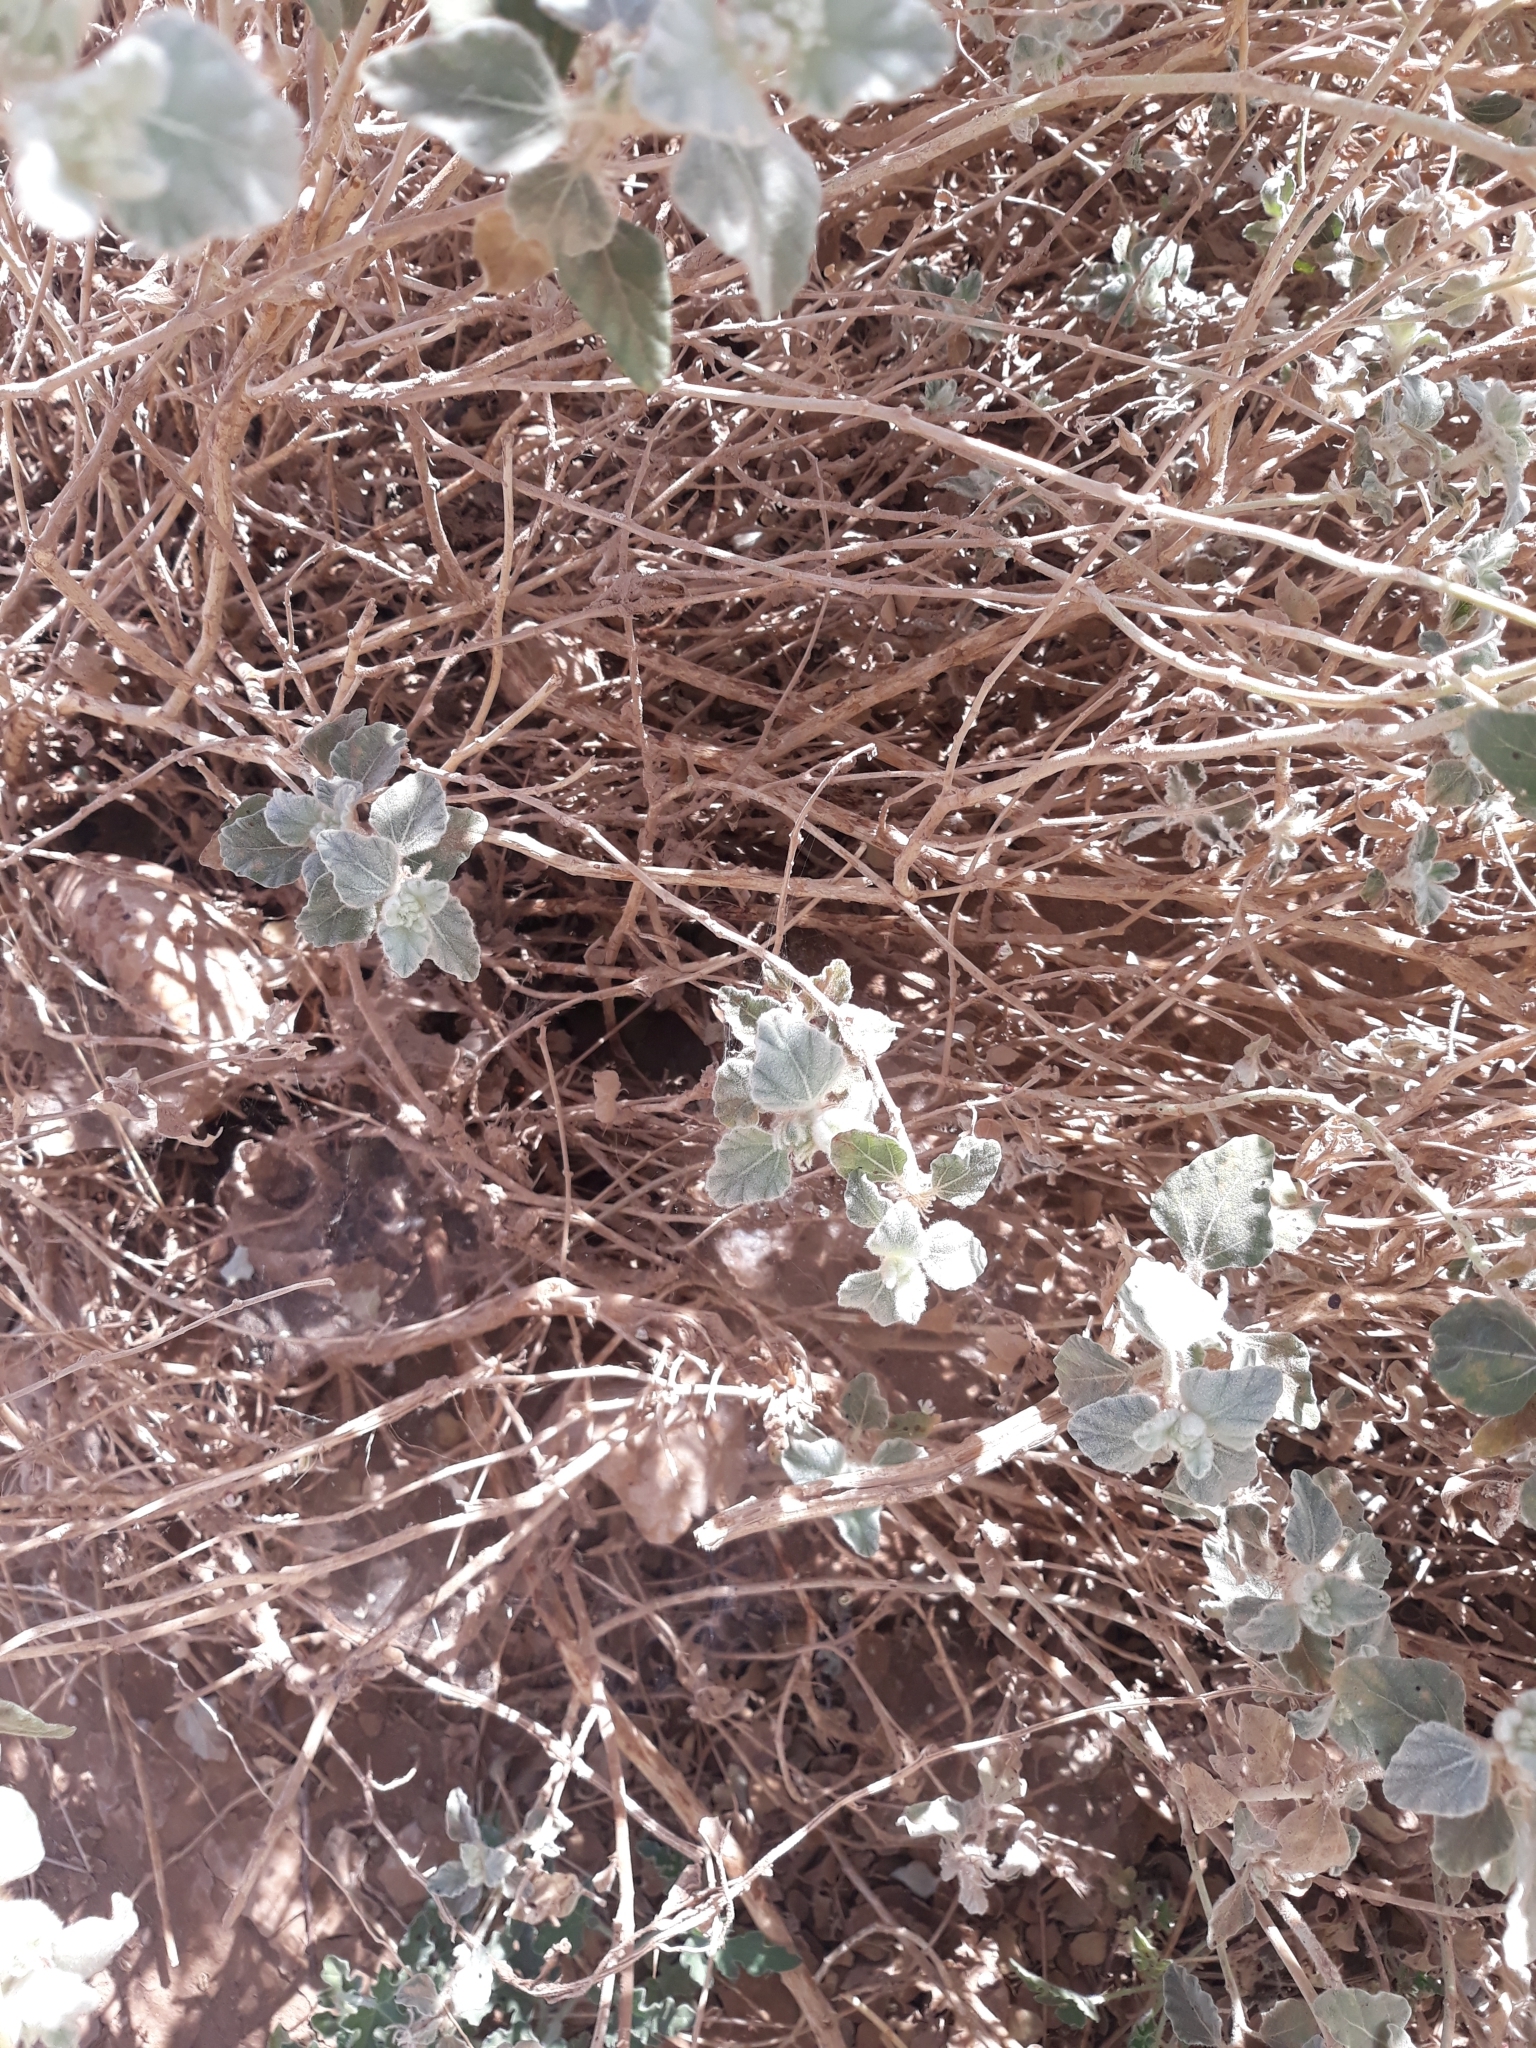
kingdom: Plantae
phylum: Tracheophyta
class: Magnoliopsida
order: Malpighiales
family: Euphorbiaceae
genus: Chrozophora
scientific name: Chrozophora brocchiana
